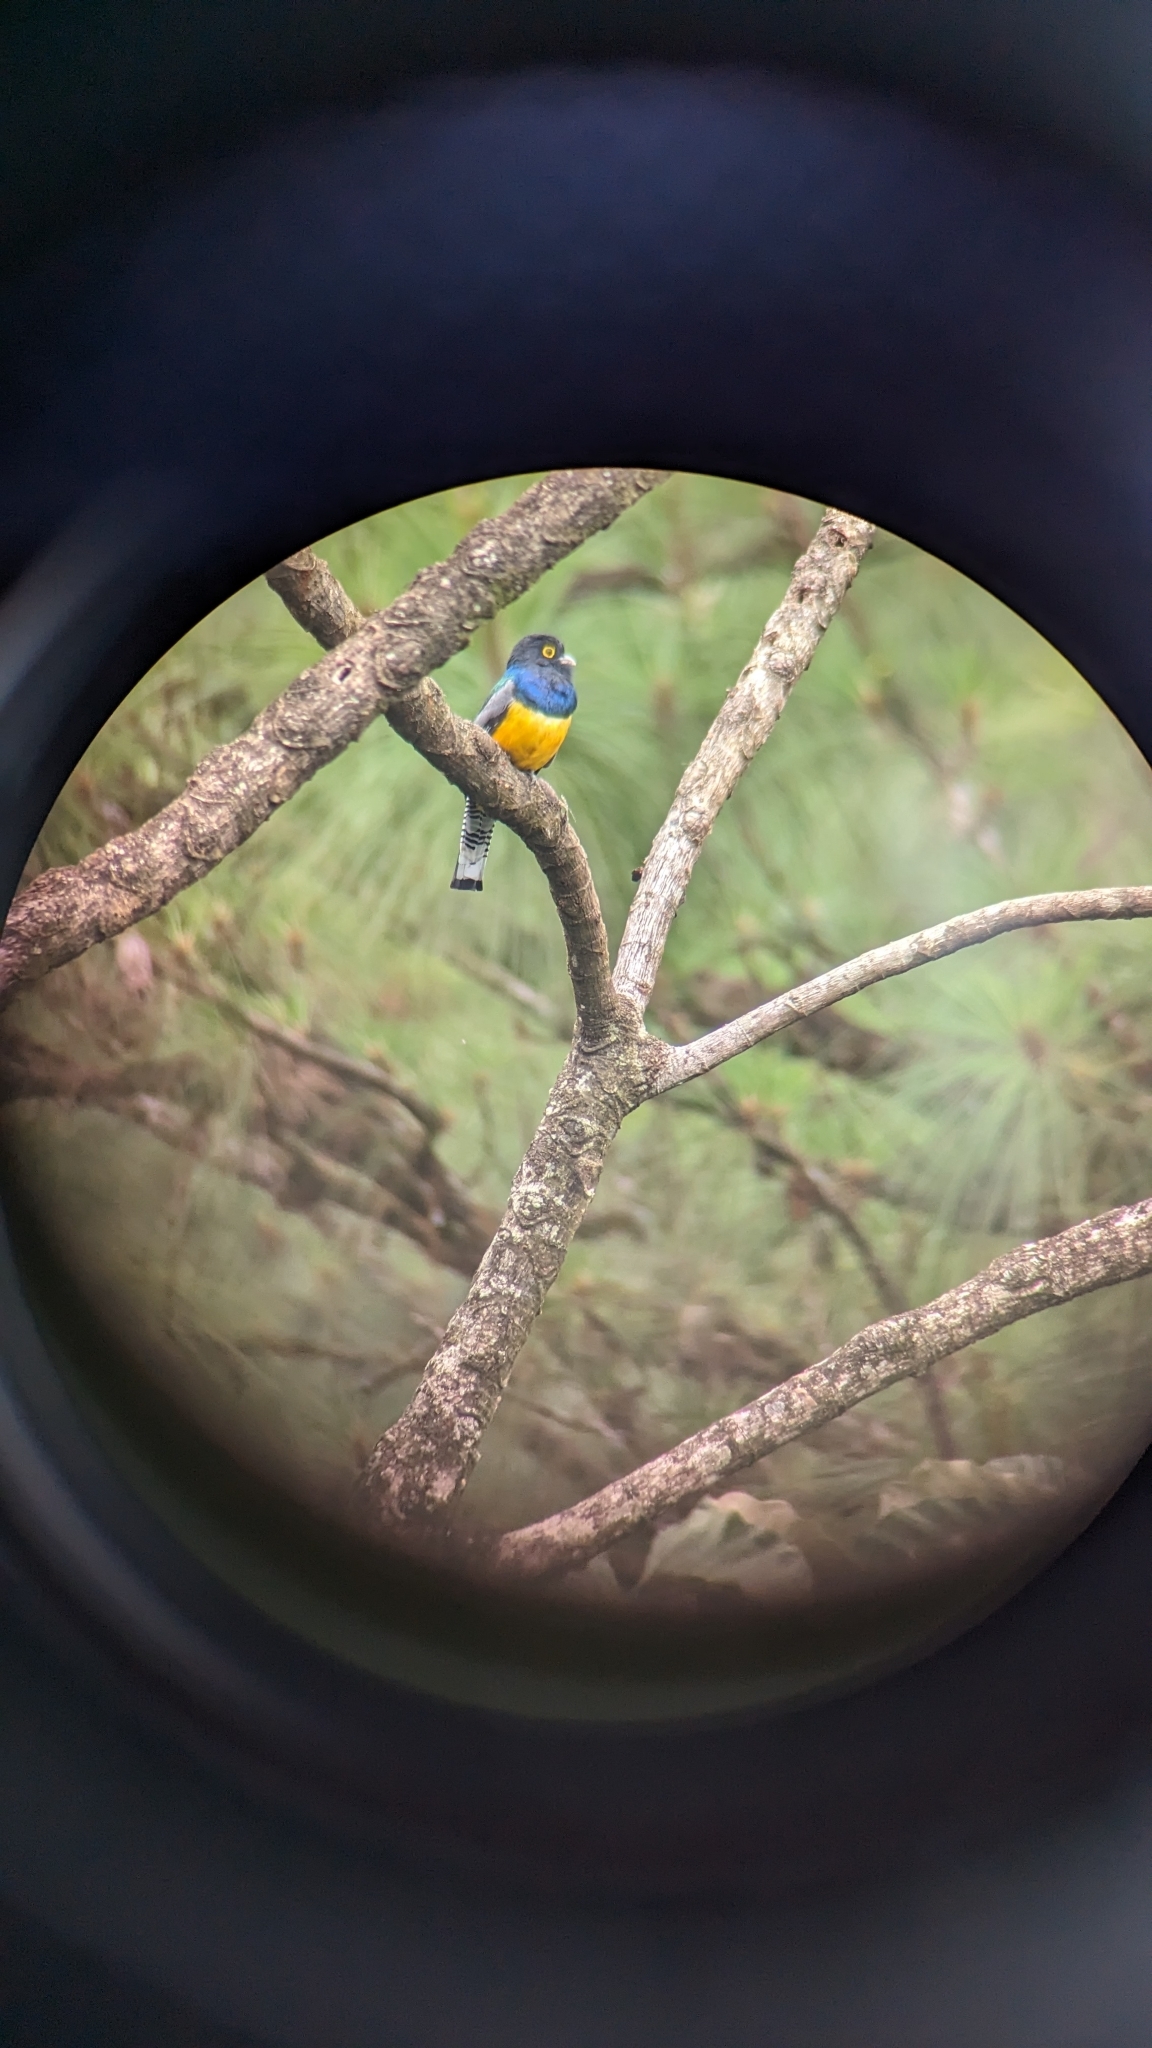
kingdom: Animalia
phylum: Chordata
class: Aves
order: Trogoniformes
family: Trogonidae
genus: Trogon
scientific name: Trogon caligatus
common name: Gartered trogon
